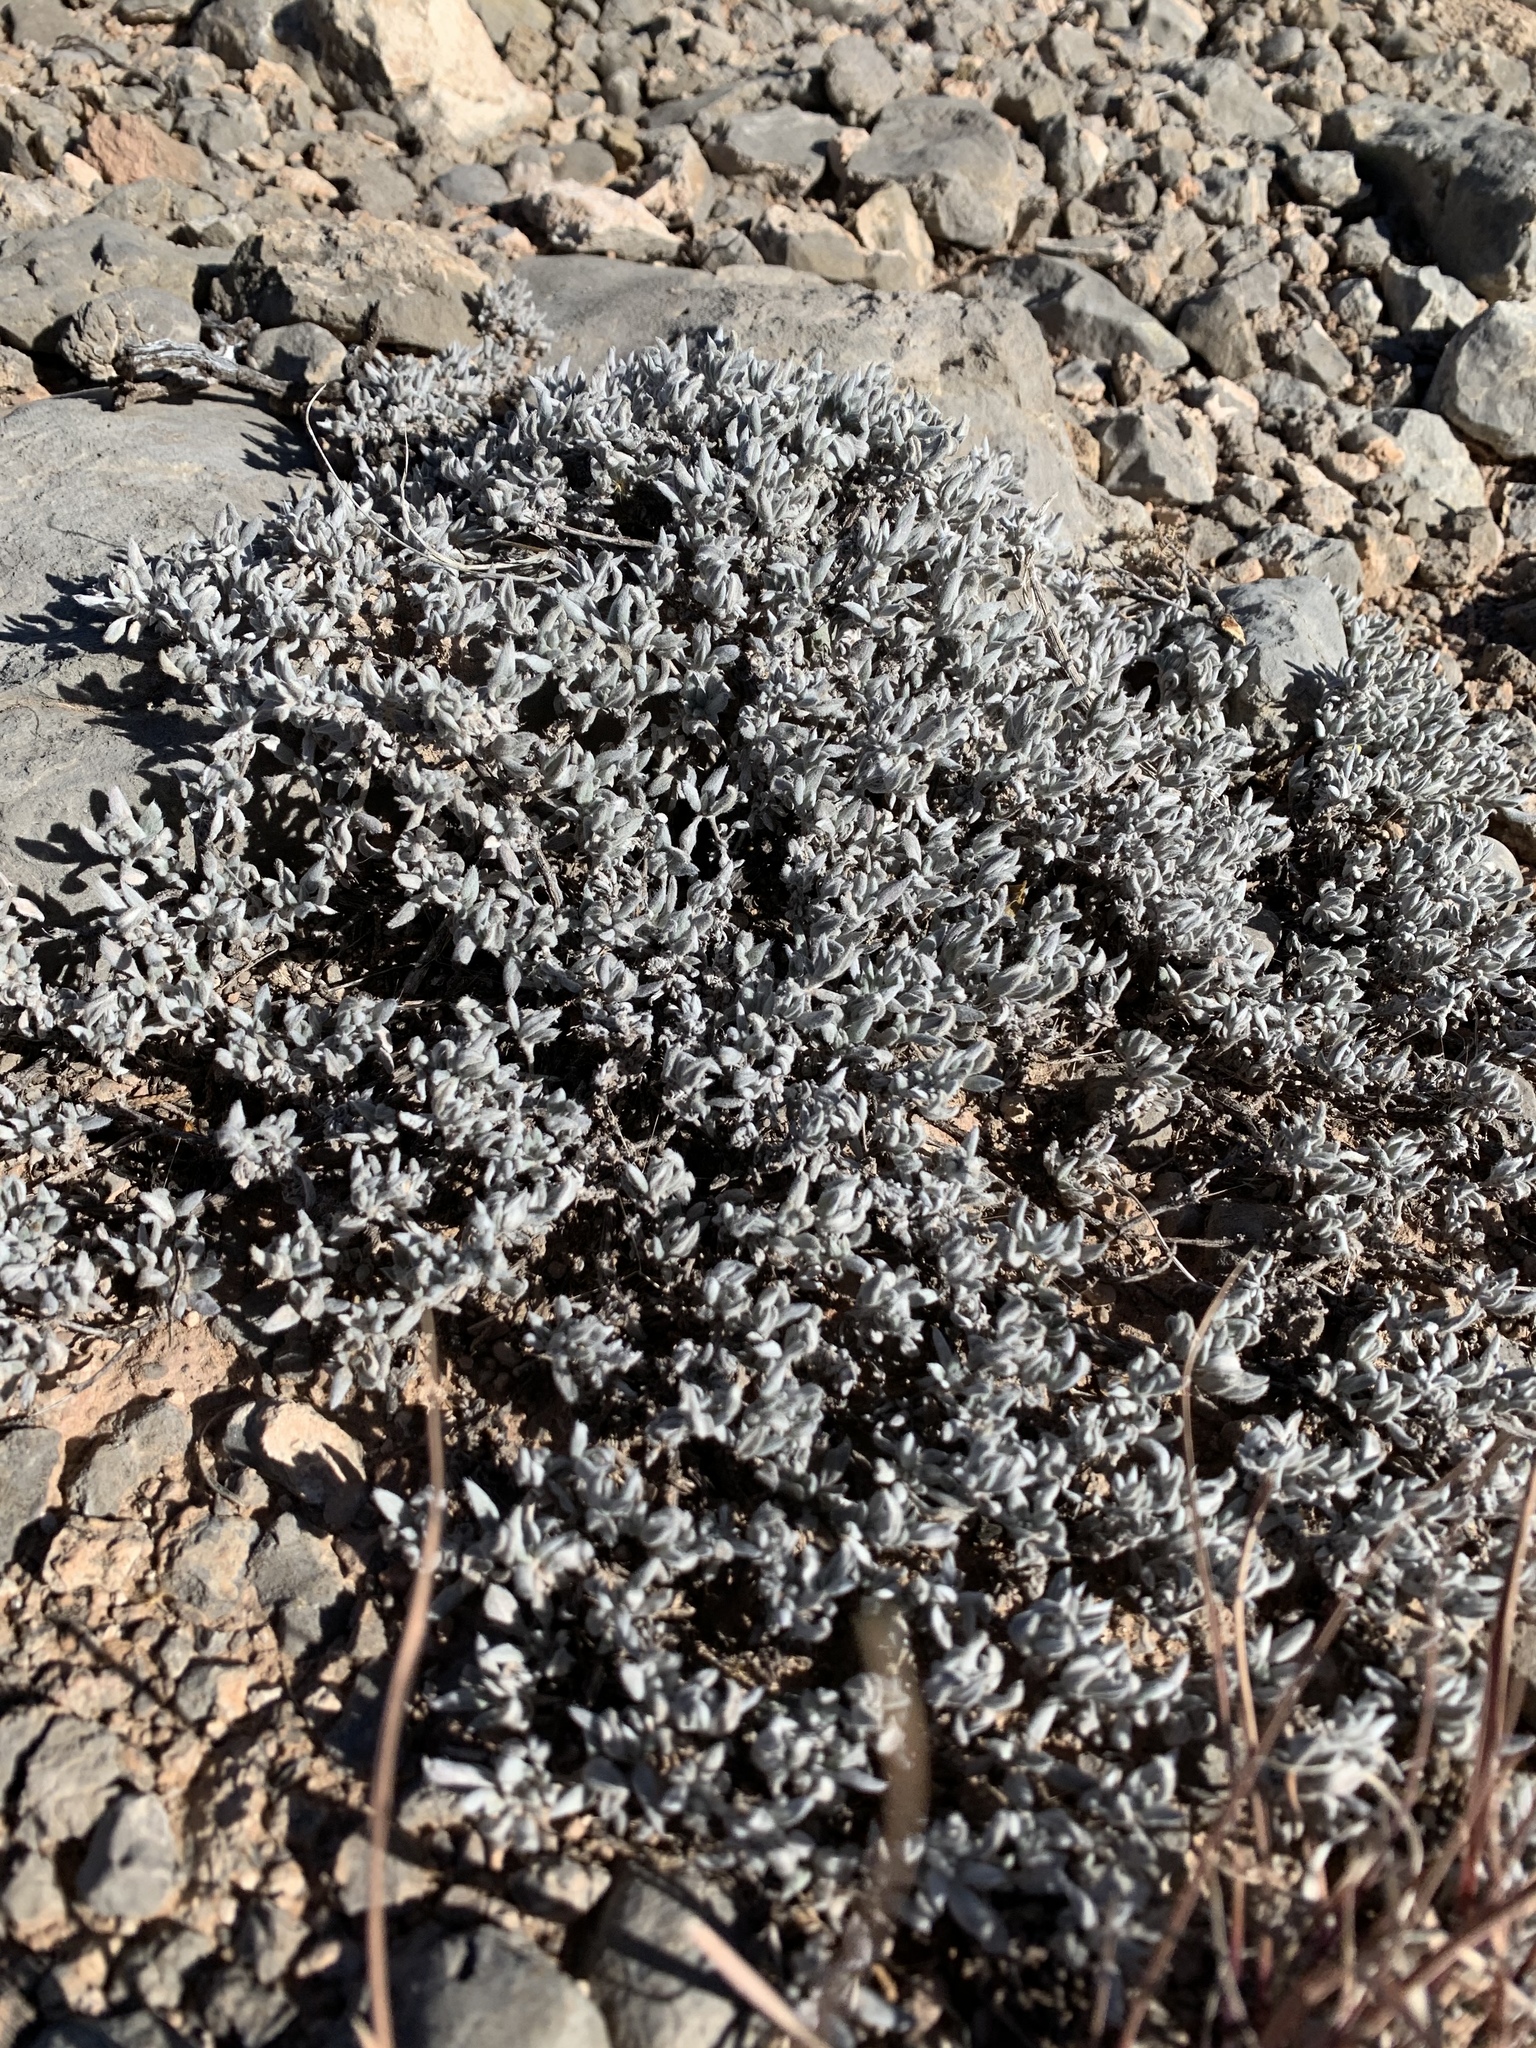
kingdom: Plantae
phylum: Tracheophyta
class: Magnoliopsida
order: Boraginales
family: Ehretiaceae
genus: Tiquilia
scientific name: Tiquilia canescens
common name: Hairy tiquilia
